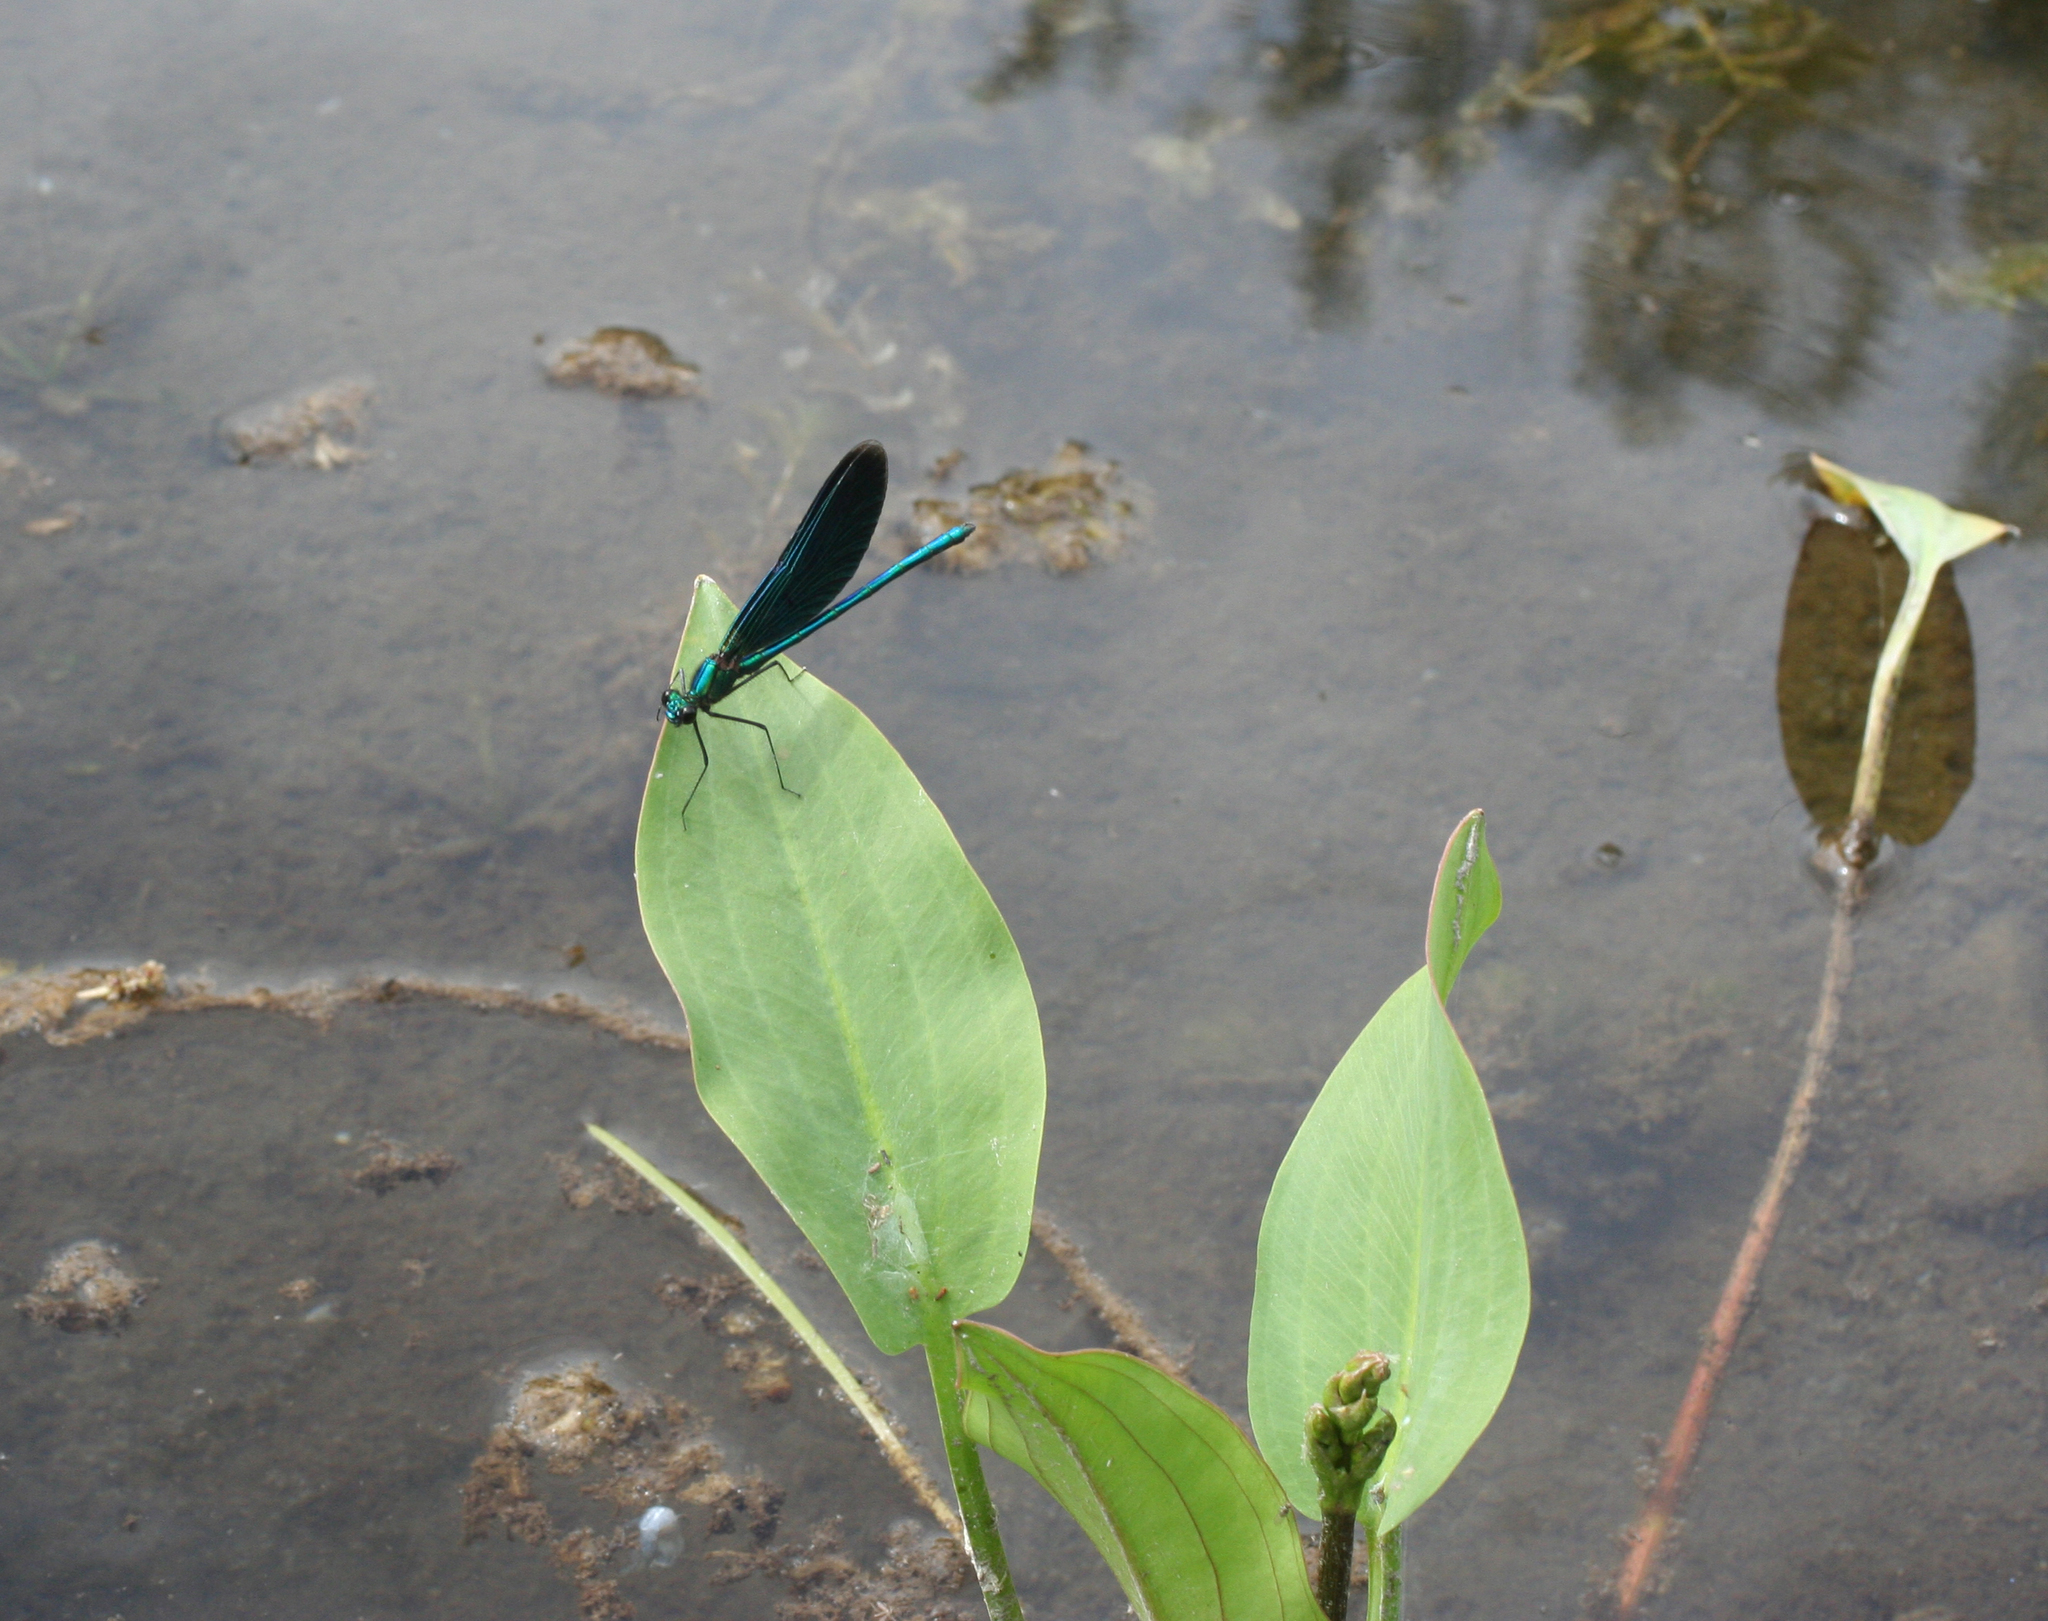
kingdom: Animalia
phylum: Arthropoda
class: Insecta
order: Odonata
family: Calopterygidae
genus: Calopteryx
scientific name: Calopteryx virgo
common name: Beautiful demoiselle
